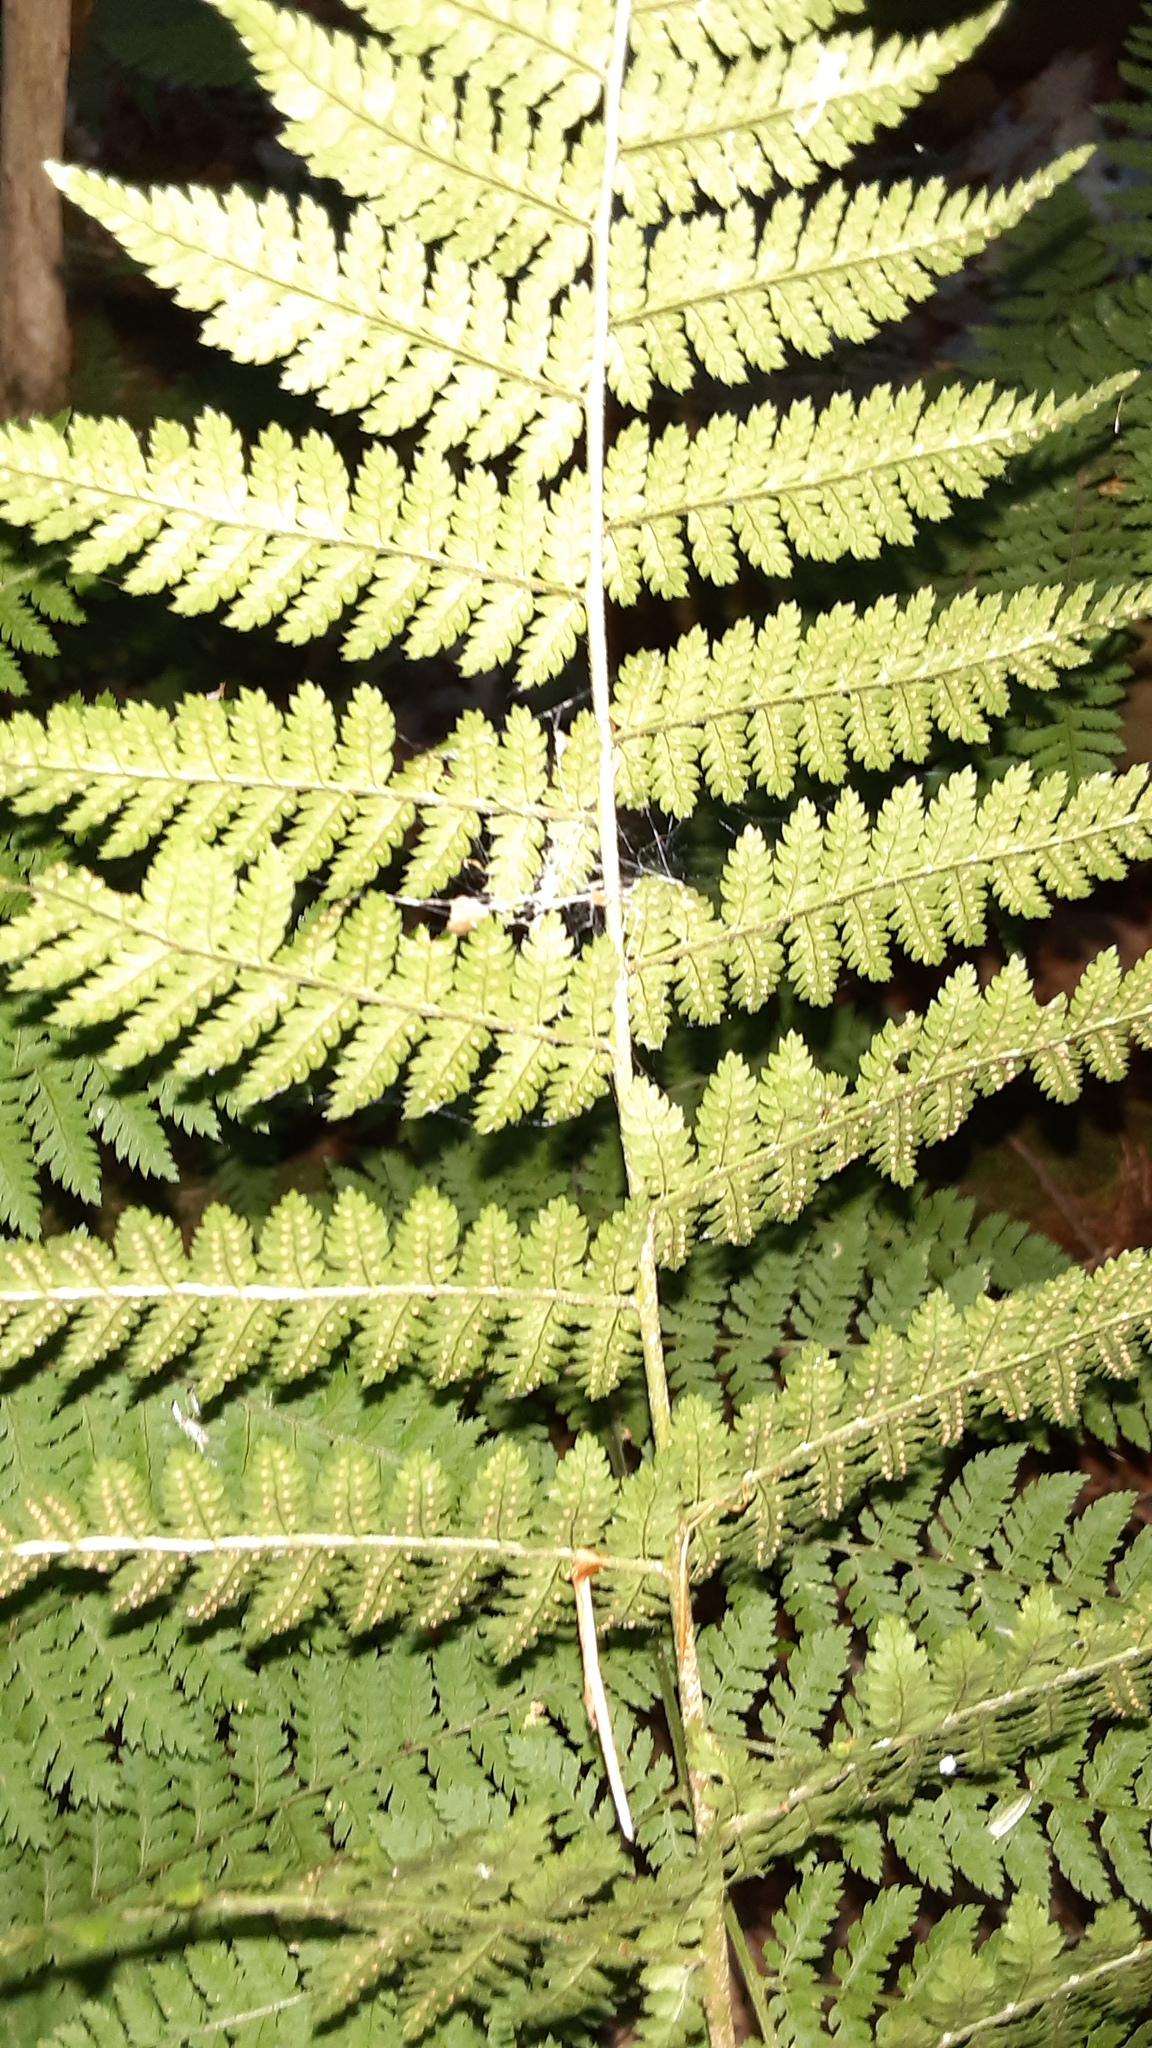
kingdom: Plantae
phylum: Tracheophyta
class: Polypodiopsida
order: Polypodiales
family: Dryopteridaceae
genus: Dryopteris
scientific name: Dryopteris intermedia
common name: Evergreen wood fern
